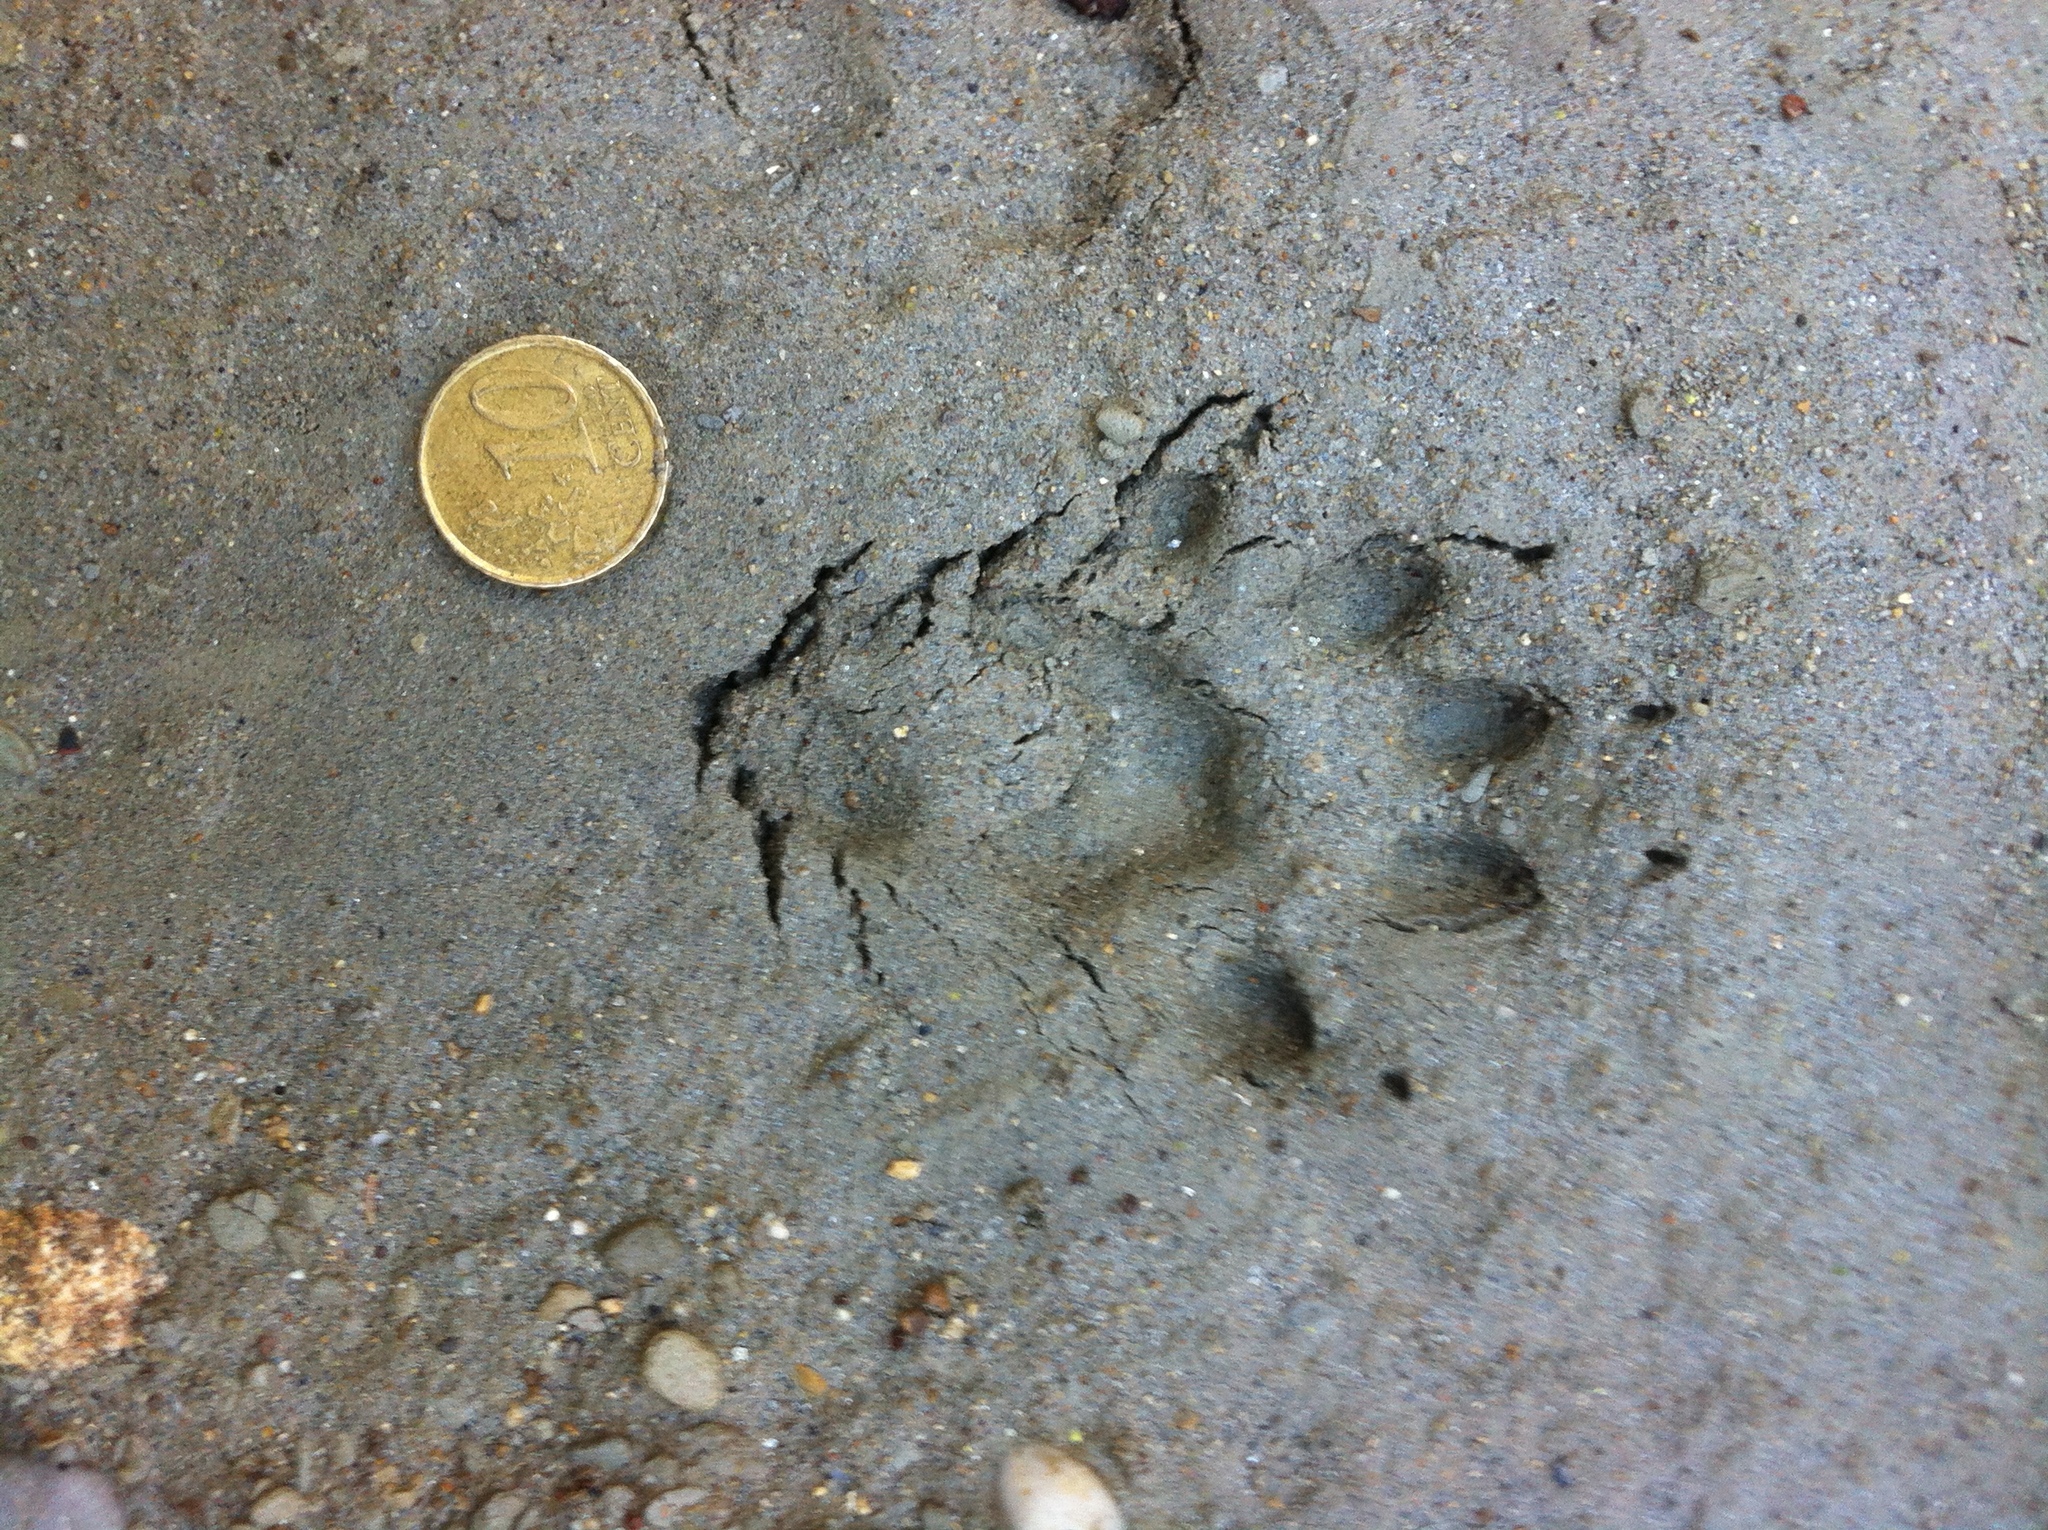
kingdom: Animalia
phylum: Chordata
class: Mammalia
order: Erinaceomorpha
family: Erinaceidae
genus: Erinaceus
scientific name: Erinaceus europaeus
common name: West european hedgehog
